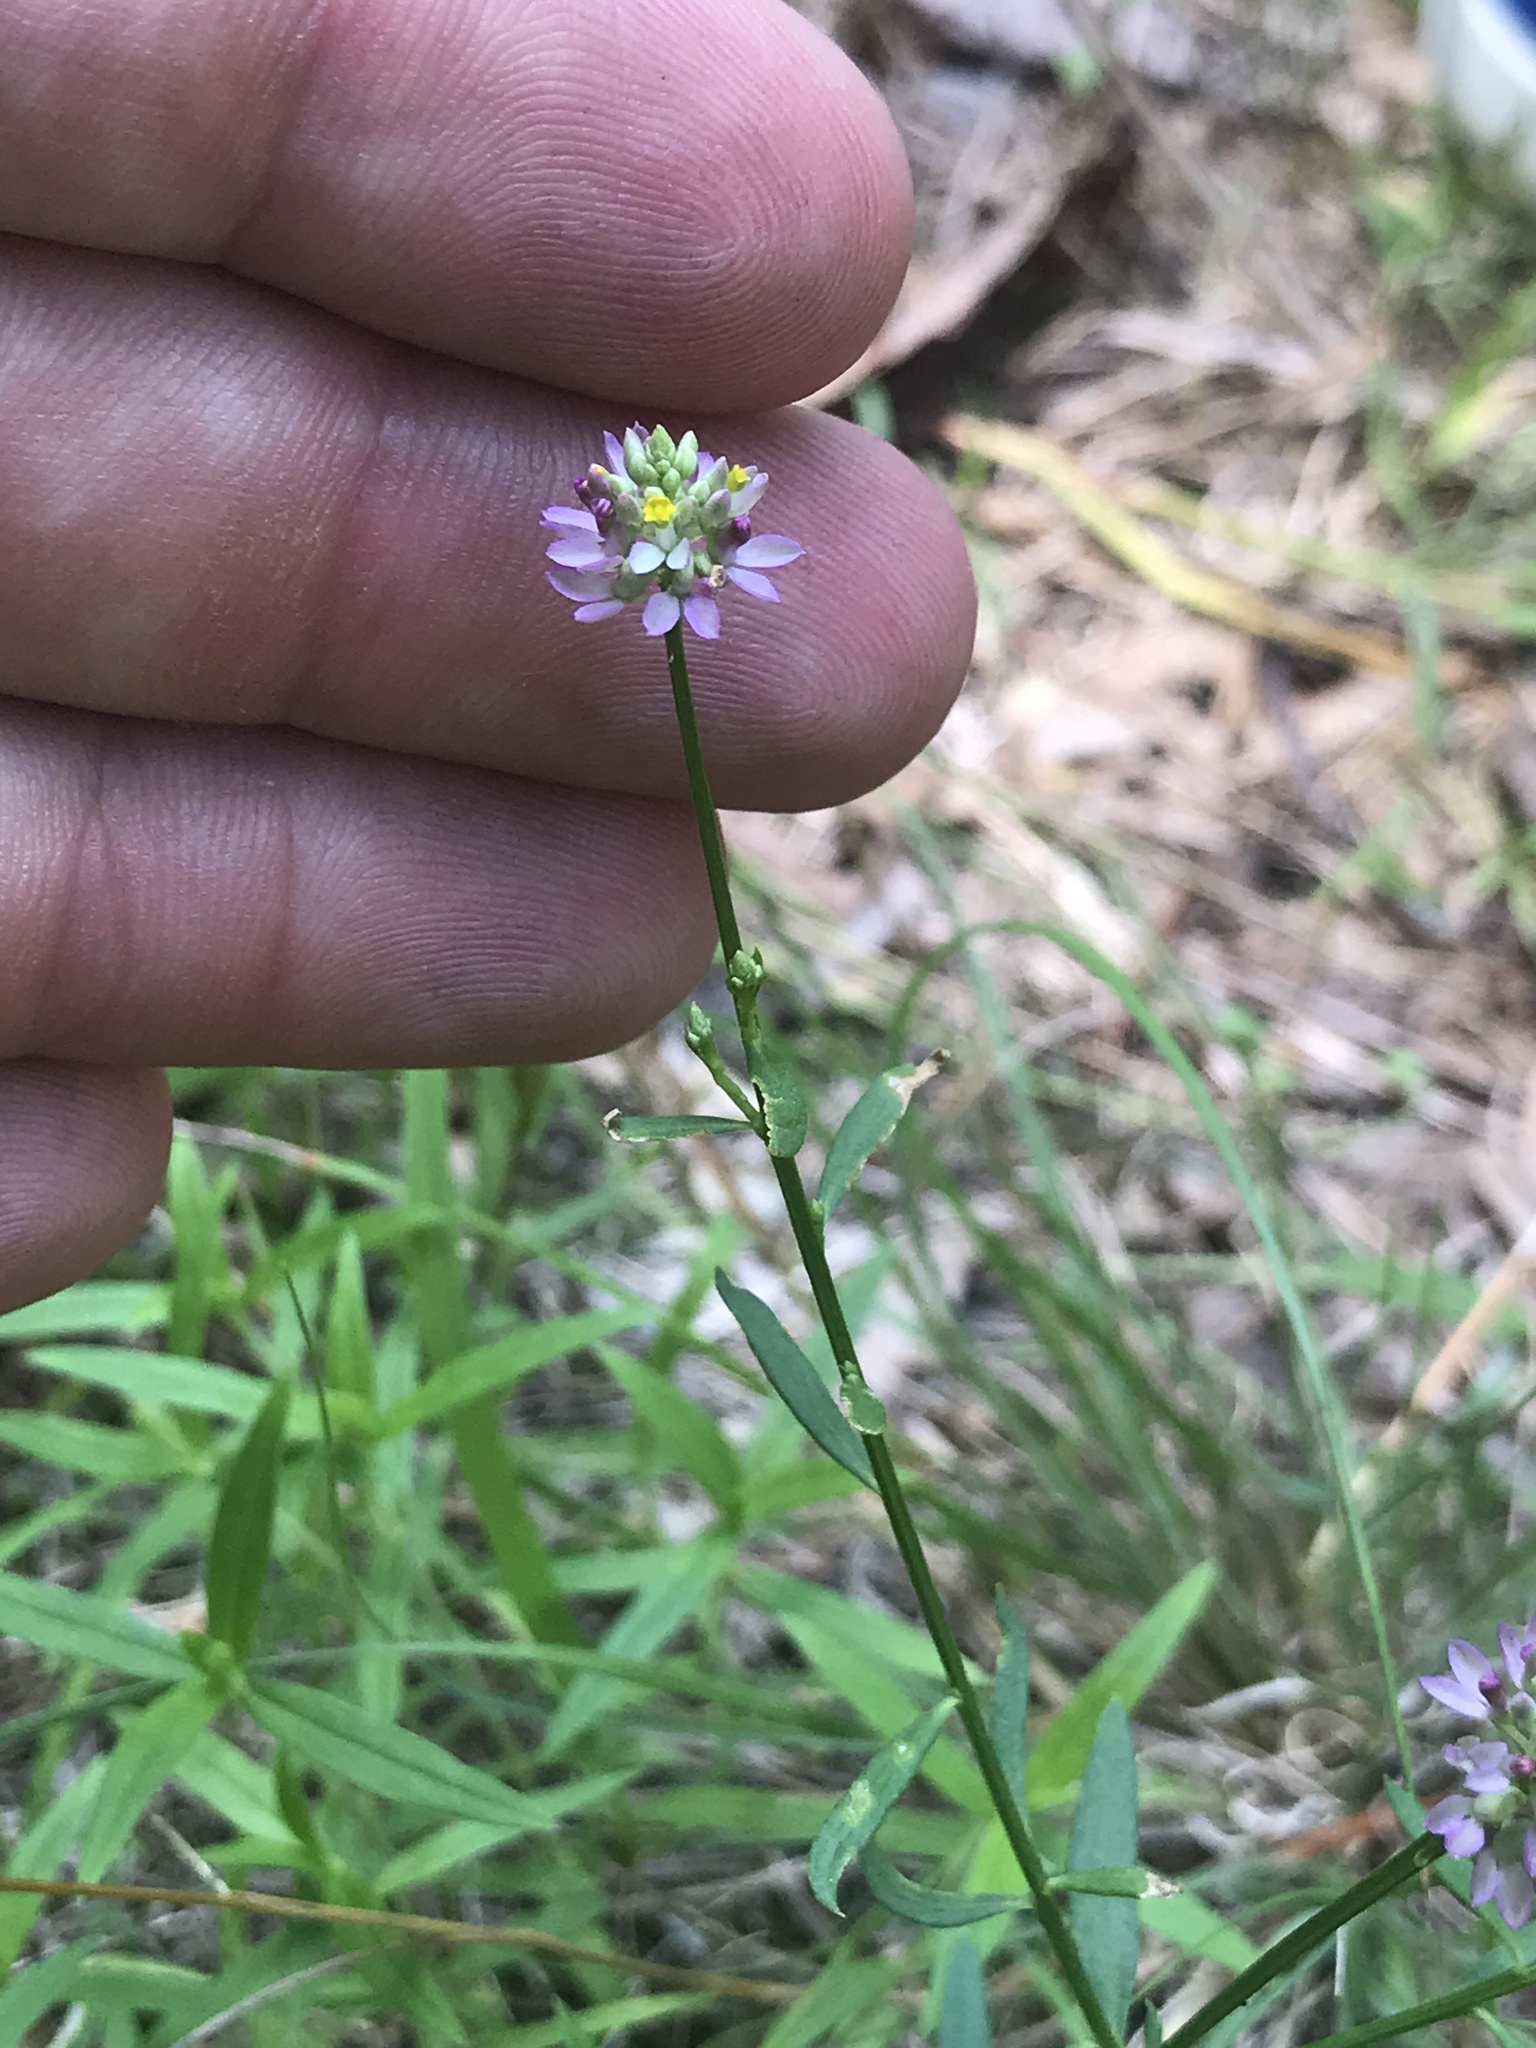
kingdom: Plantae
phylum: Tracheophyta
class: Magnoliopsida
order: Fabales
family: Polygalaceae
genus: Polygala
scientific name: Polygala curtissii
